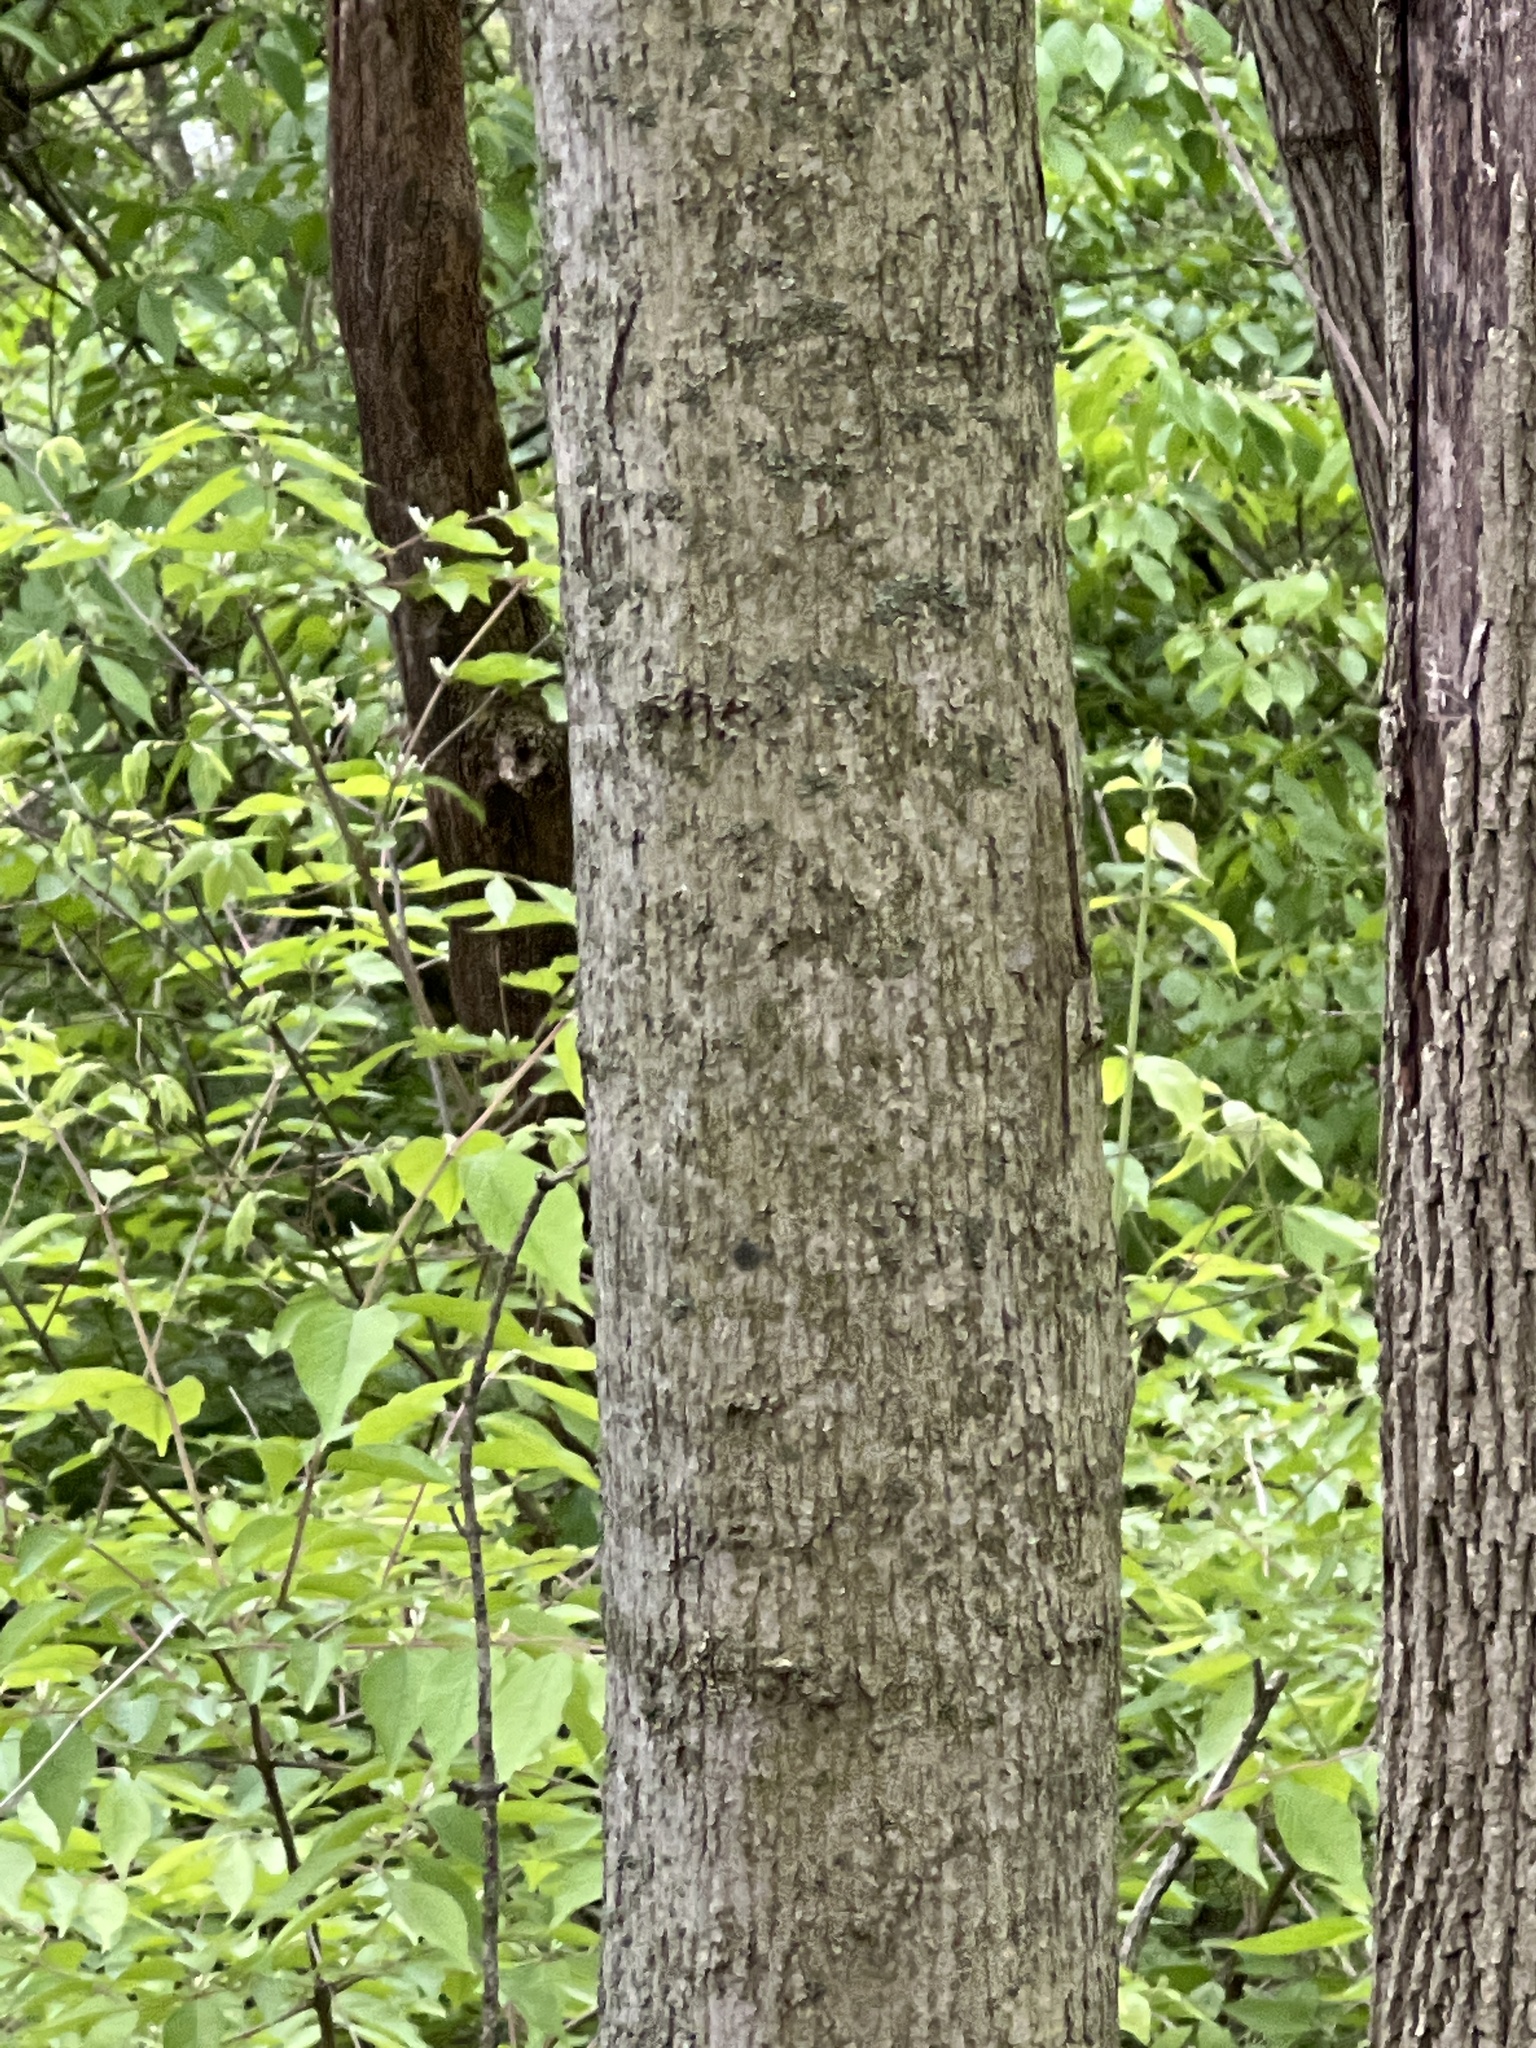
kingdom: Plantae
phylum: Tracheophyta
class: Magnoliopsida
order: Sapindales
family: Sapindaceae
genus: Acer
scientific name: Acer platanoides
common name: Norway maple
